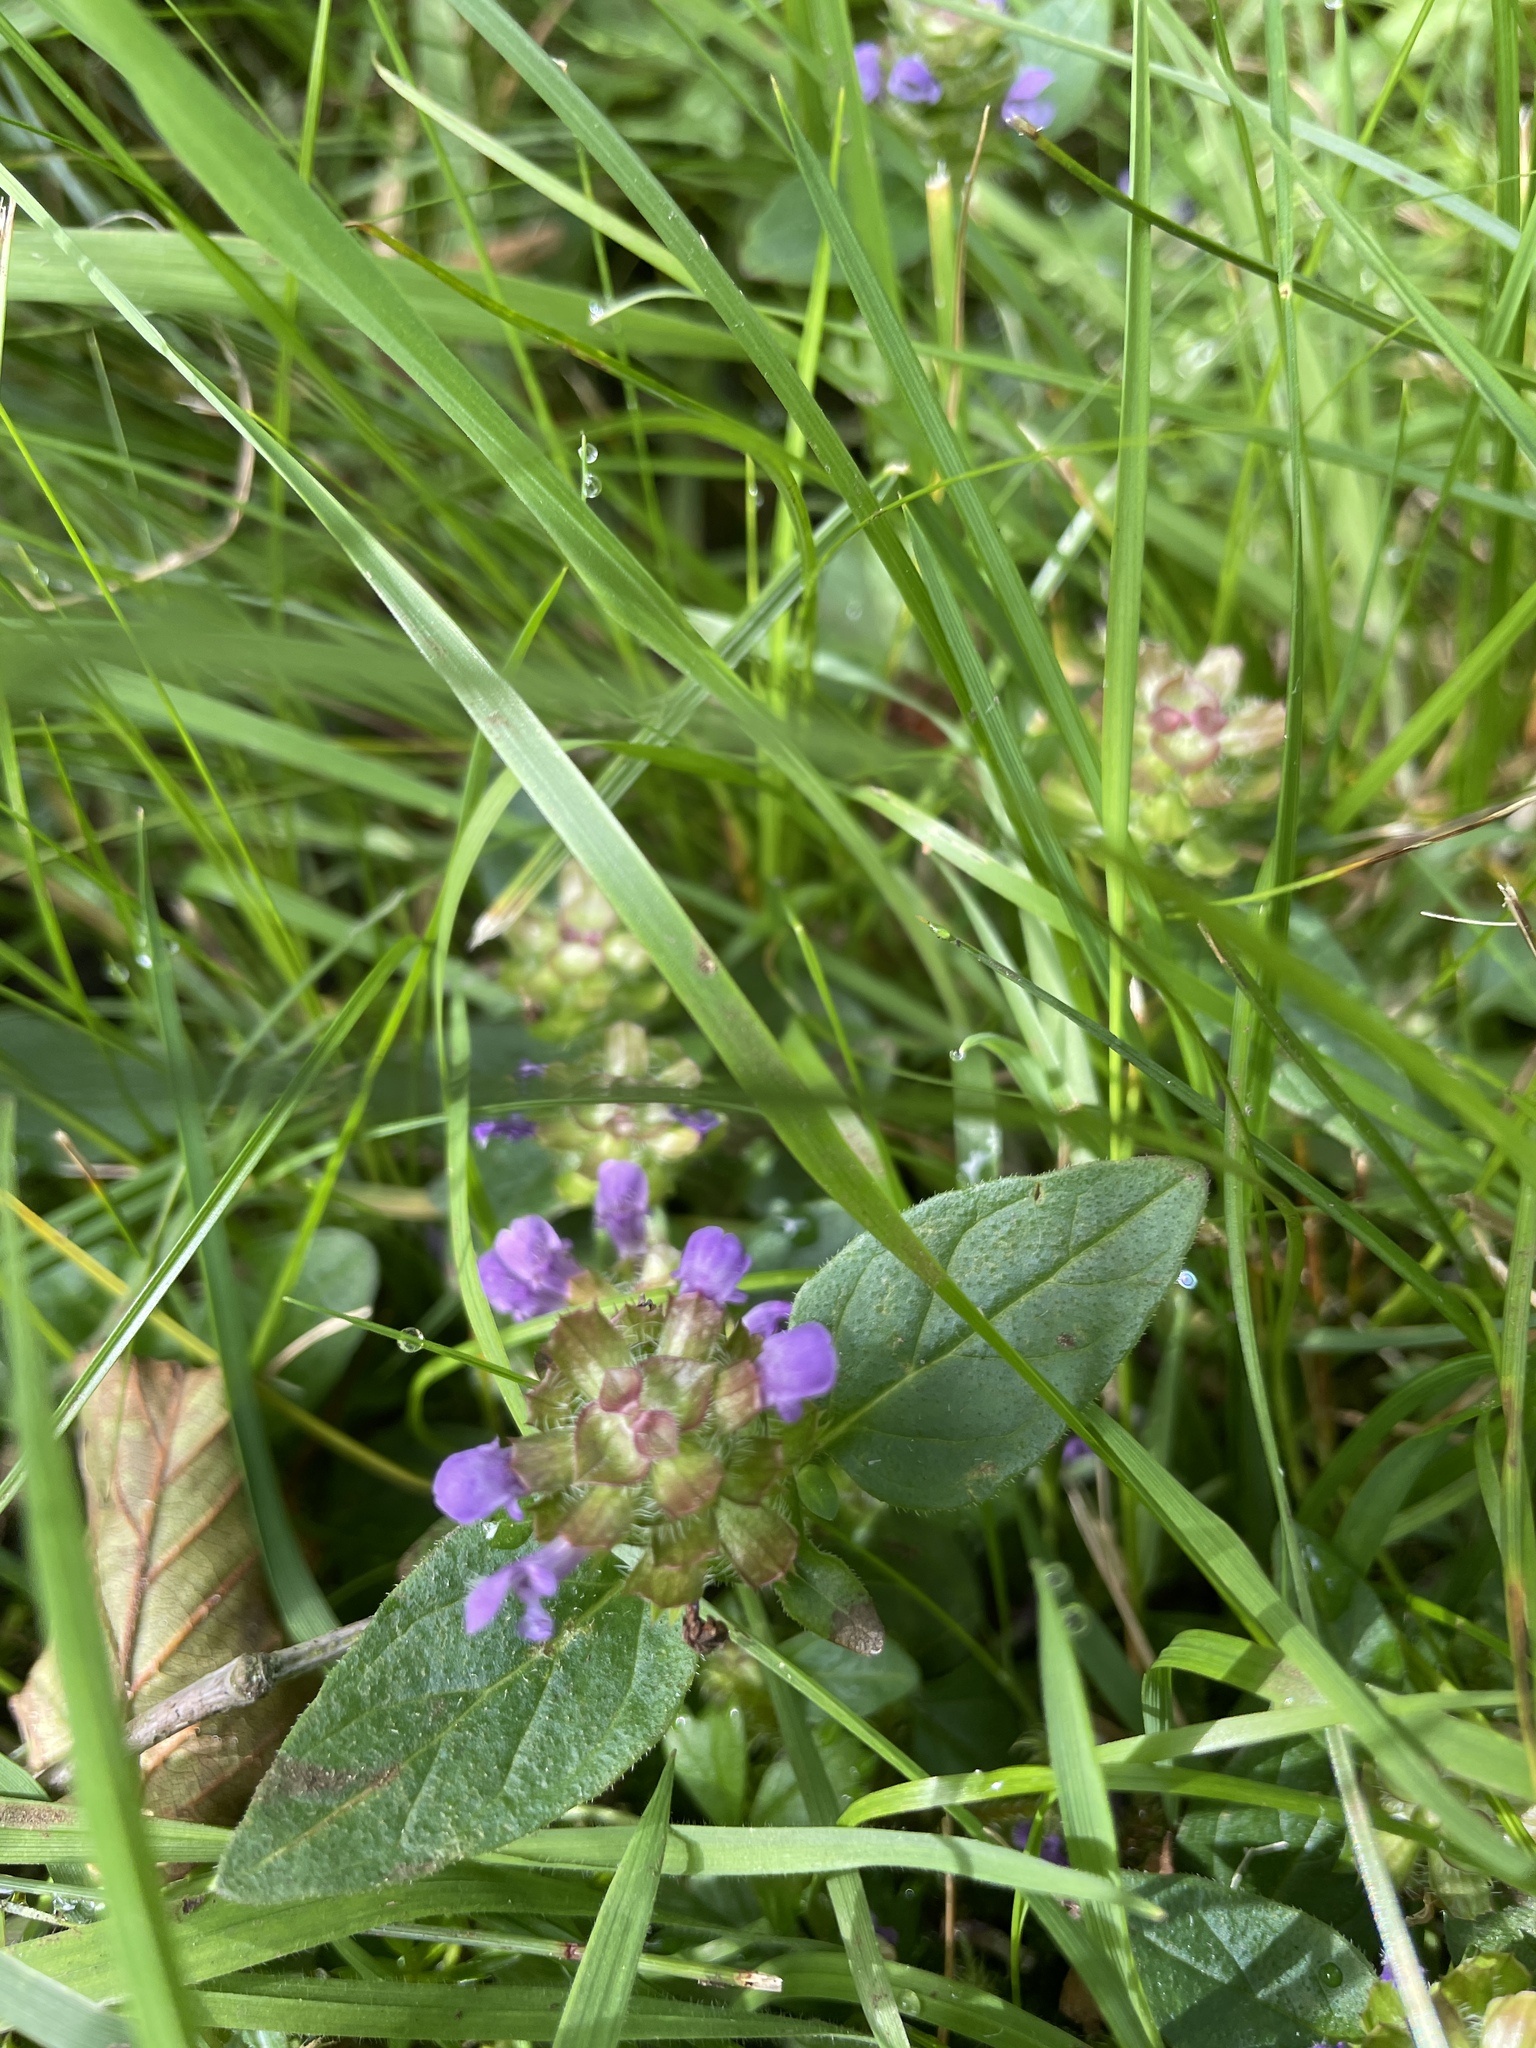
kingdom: Plantae
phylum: Tracheophyta
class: Magnoliopsida
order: Lamiales
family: Lamiaceae
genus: Prunella
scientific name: Prunella vulgaris
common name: Heal-all
